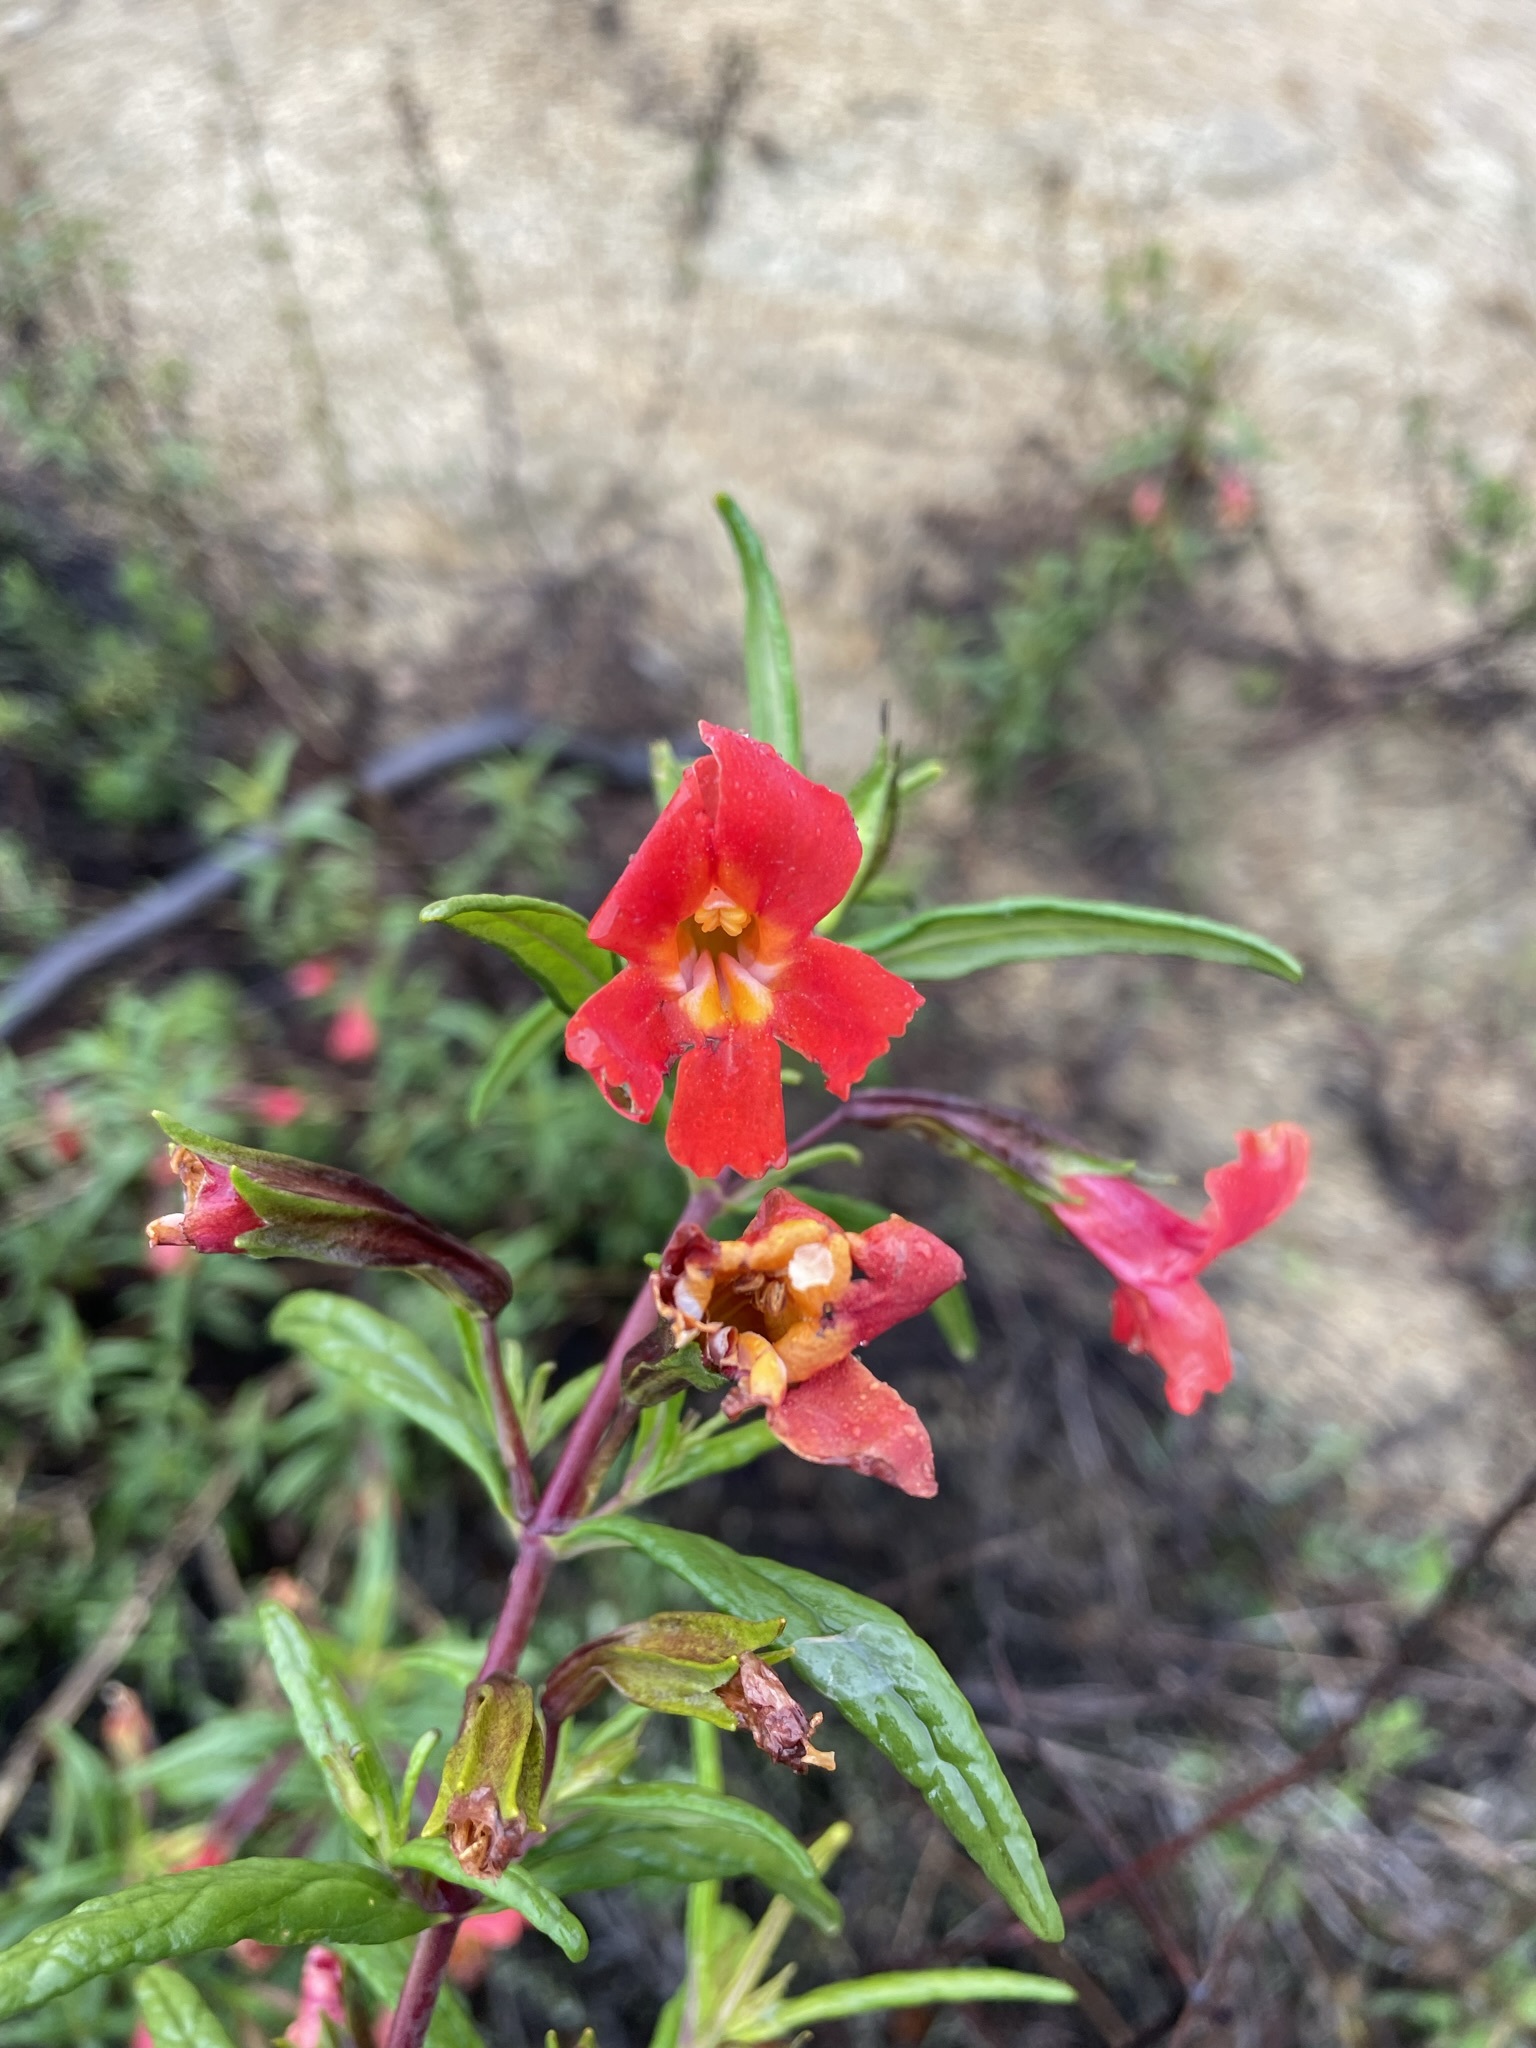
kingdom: Plantae
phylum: Tracheophyta
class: Magnoliopsida
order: Lamiales
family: Phrymaceae
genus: Diplacus
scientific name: Diplacus puniceus
